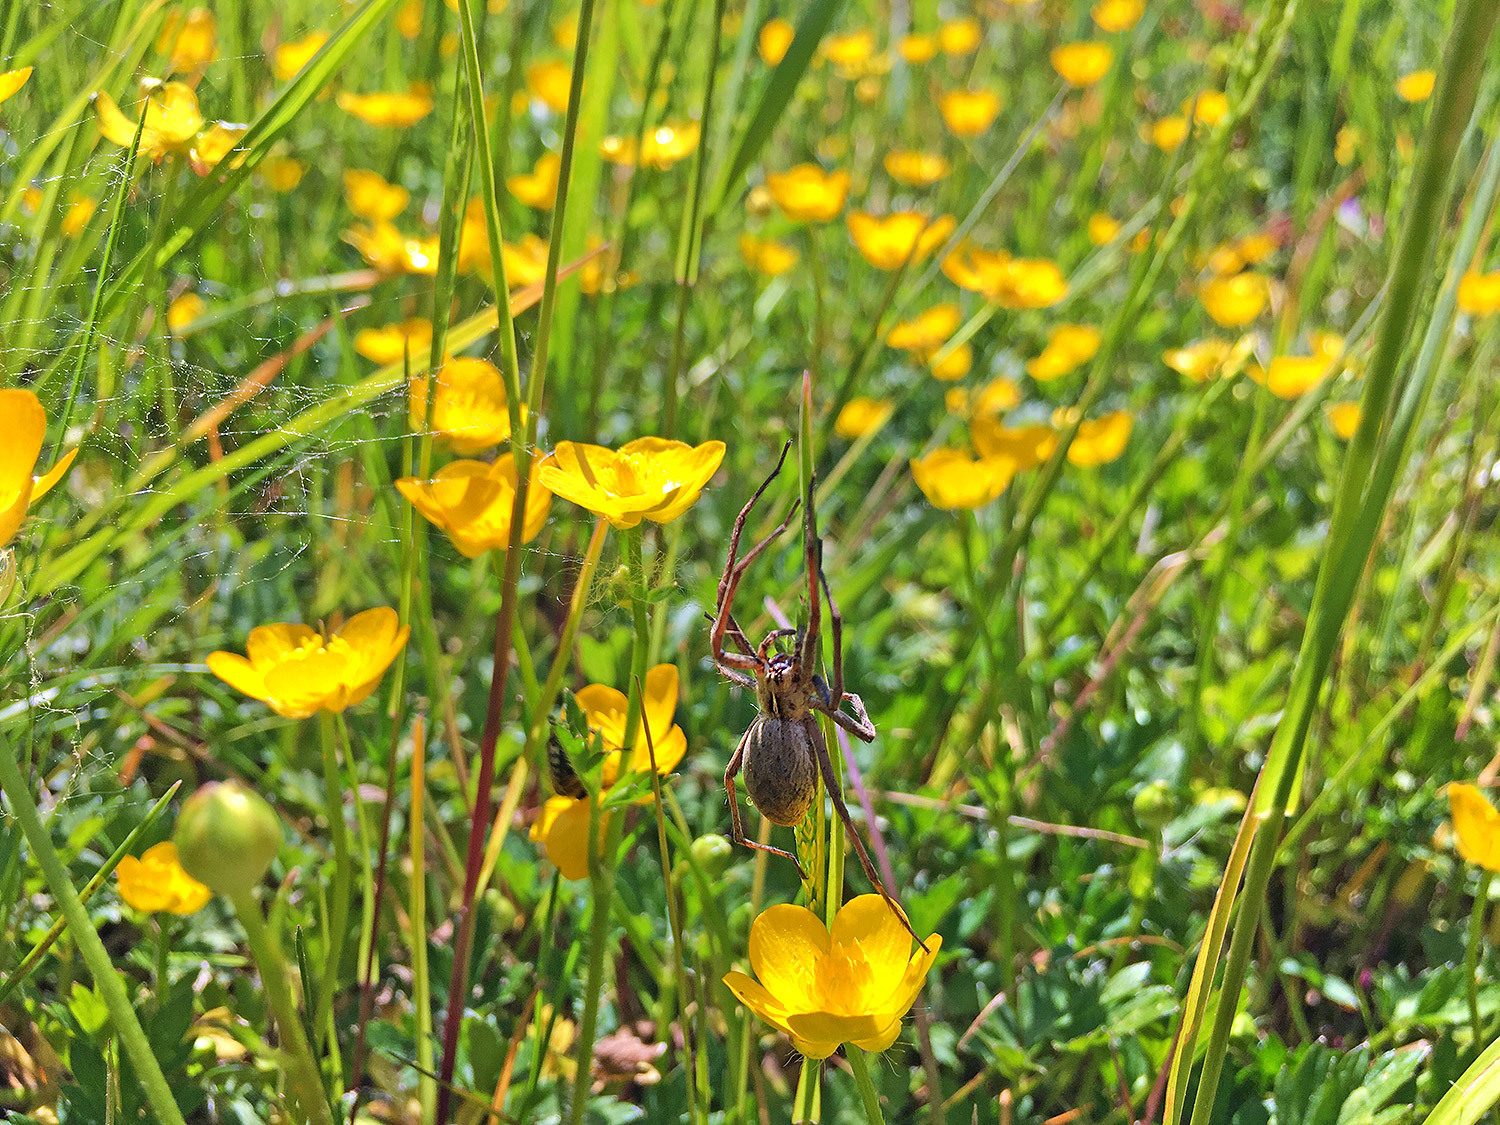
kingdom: Animalia
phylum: Arthropoda
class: Arachnida
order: Araneae
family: Pisauridae
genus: Pisaura
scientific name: Pisaura mirabilis
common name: Tent spider
